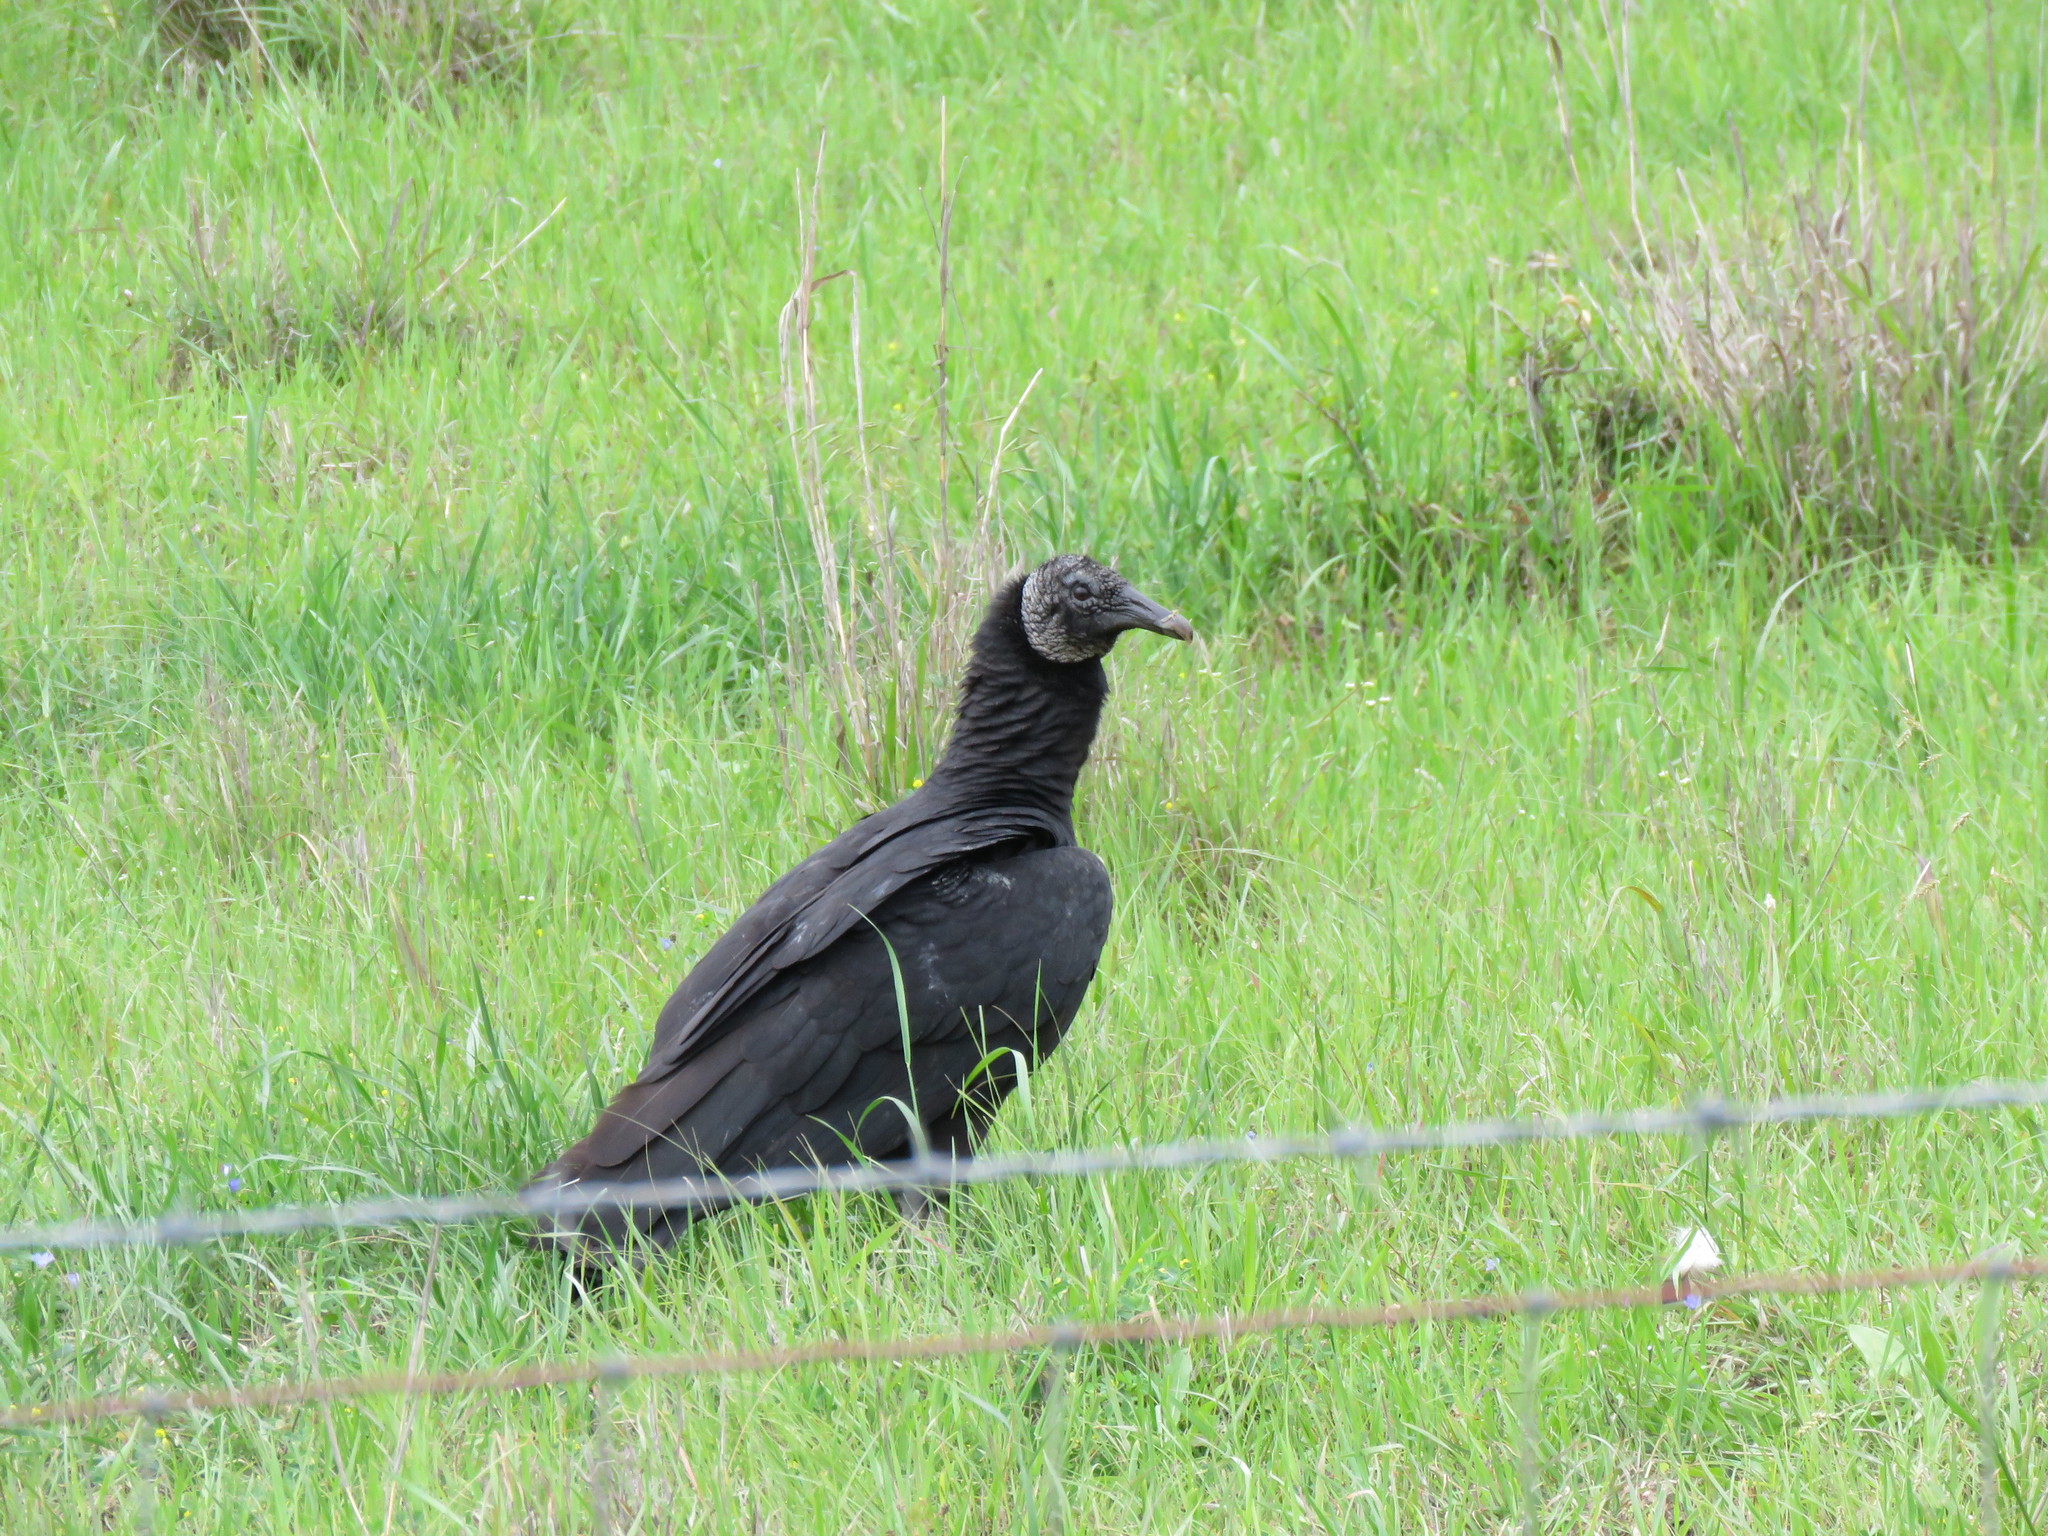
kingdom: Animalia
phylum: Chordata
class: Aves
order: Accipitriformes
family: Cathartidae
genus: Coragyps
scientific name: Coragyps atratus
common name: Black vulture
